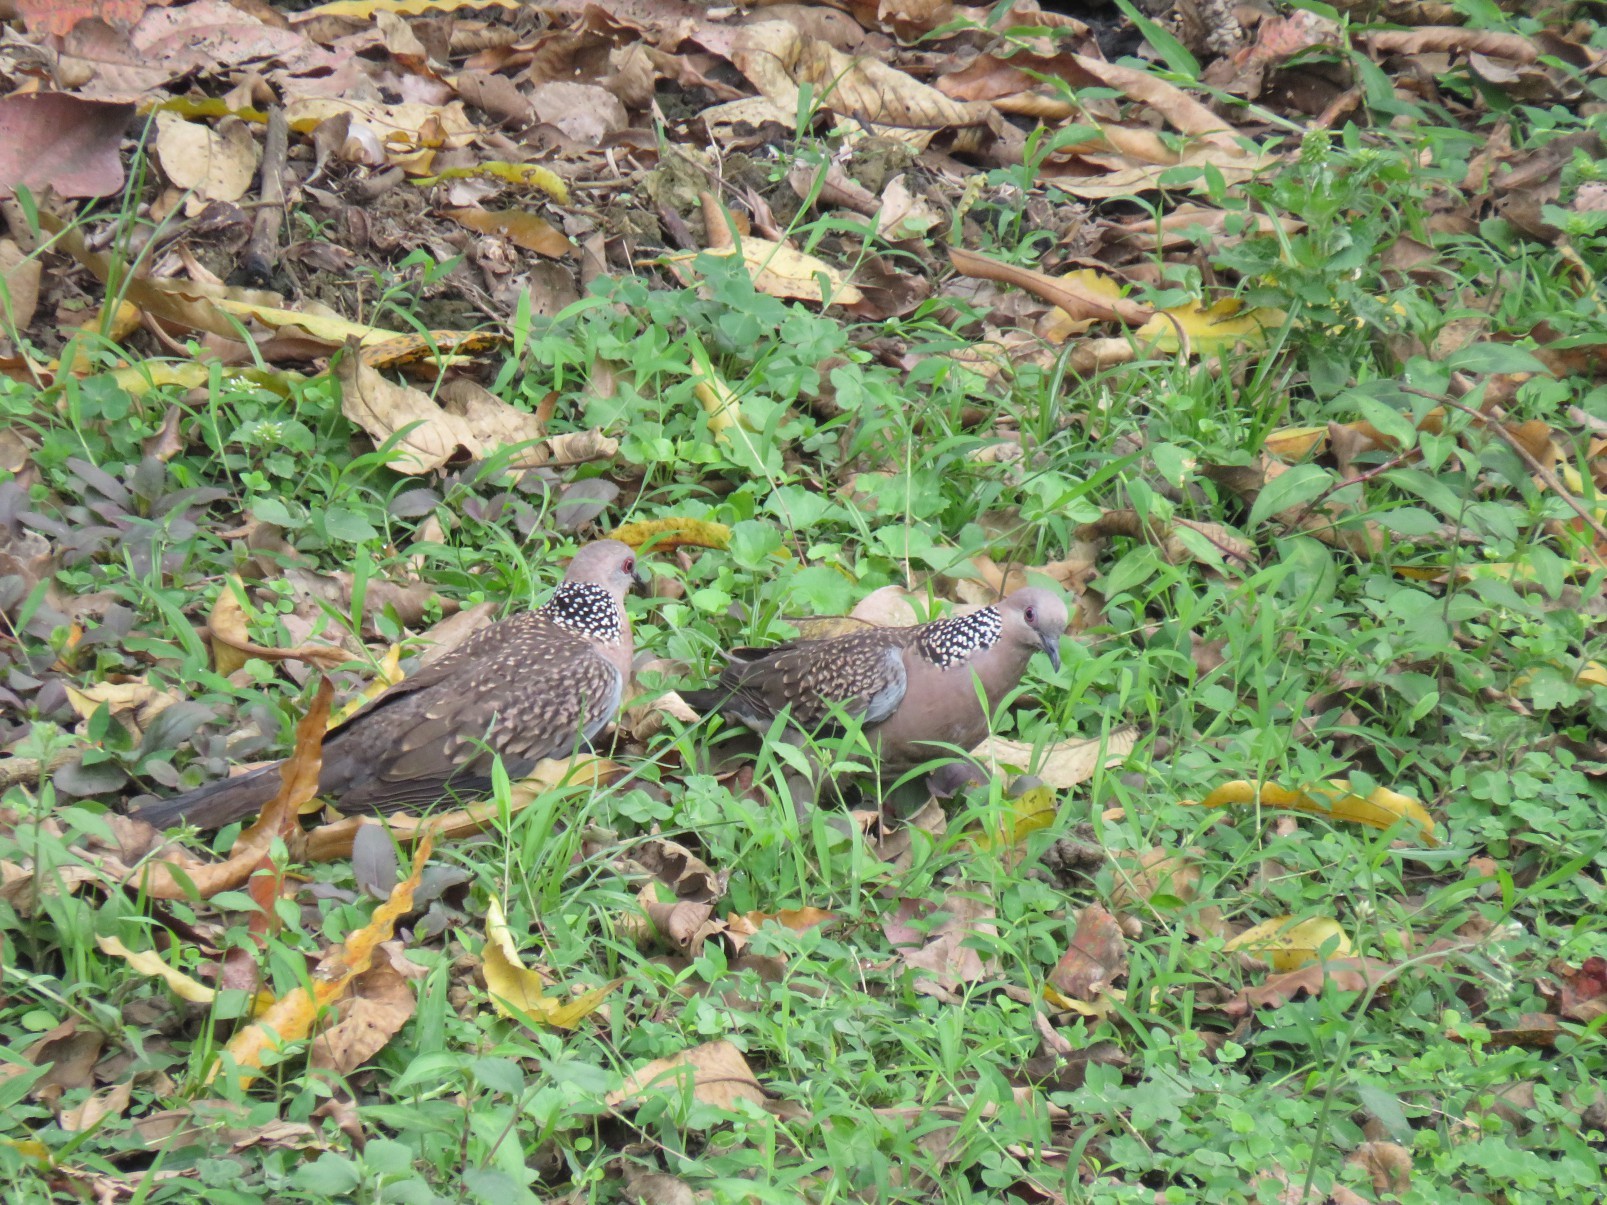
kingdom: Animalia
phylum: Chordata
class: Aves
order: Columbiformes
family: Columbidae
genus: Spilopelia
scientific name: Spilopelia chinensis
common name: Spotted dove
